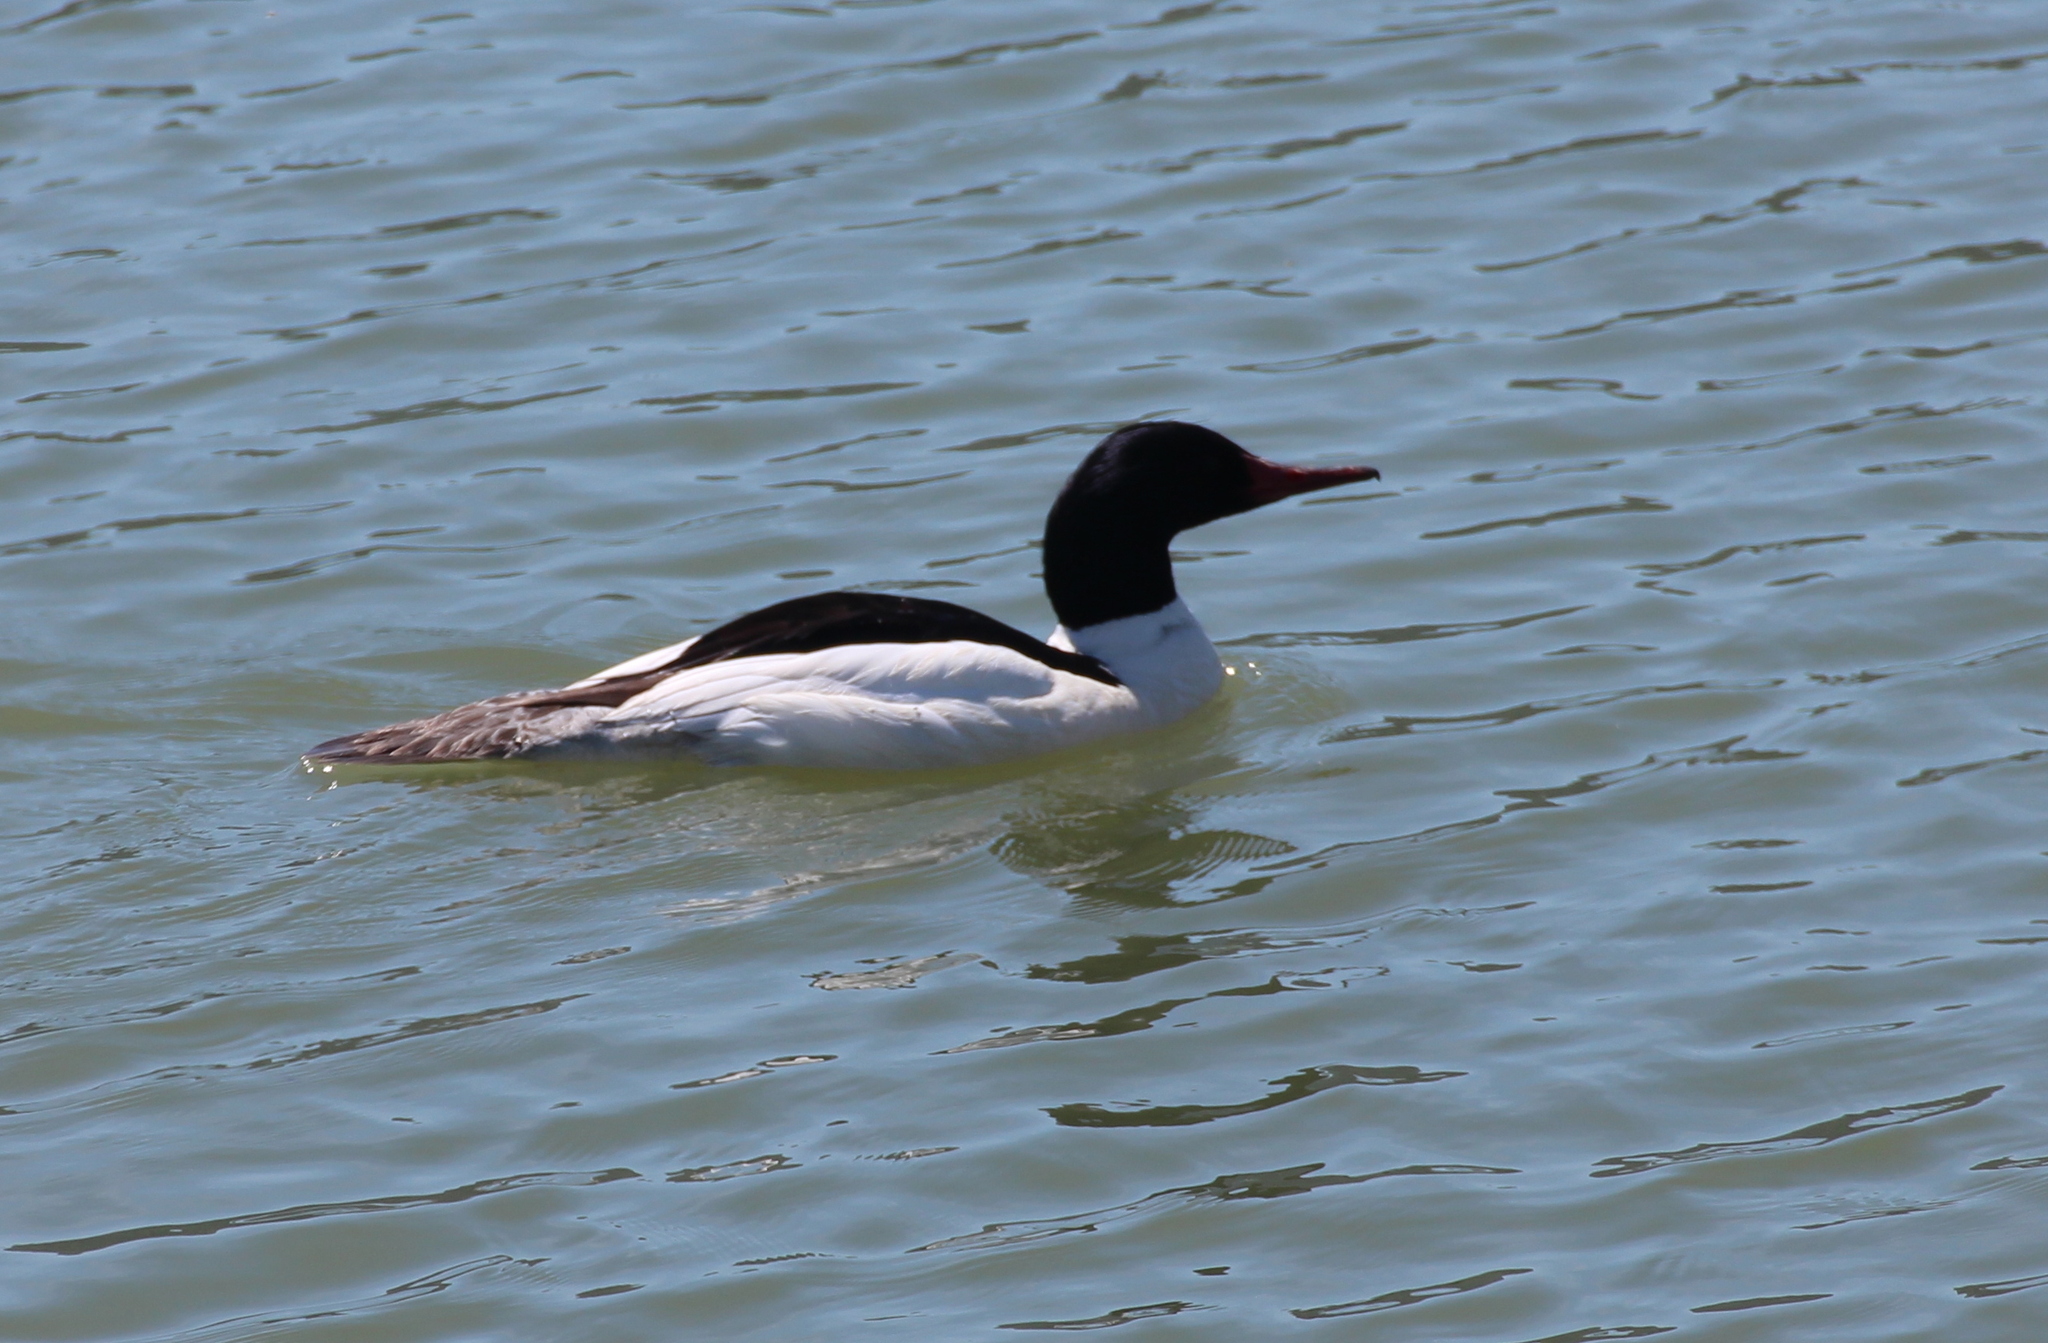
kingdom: Animalia
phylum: Chordata
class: Aves
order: Anseriformes
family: Anatidae
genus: Mergus
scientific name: Mergus merganser
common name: Common merganser
